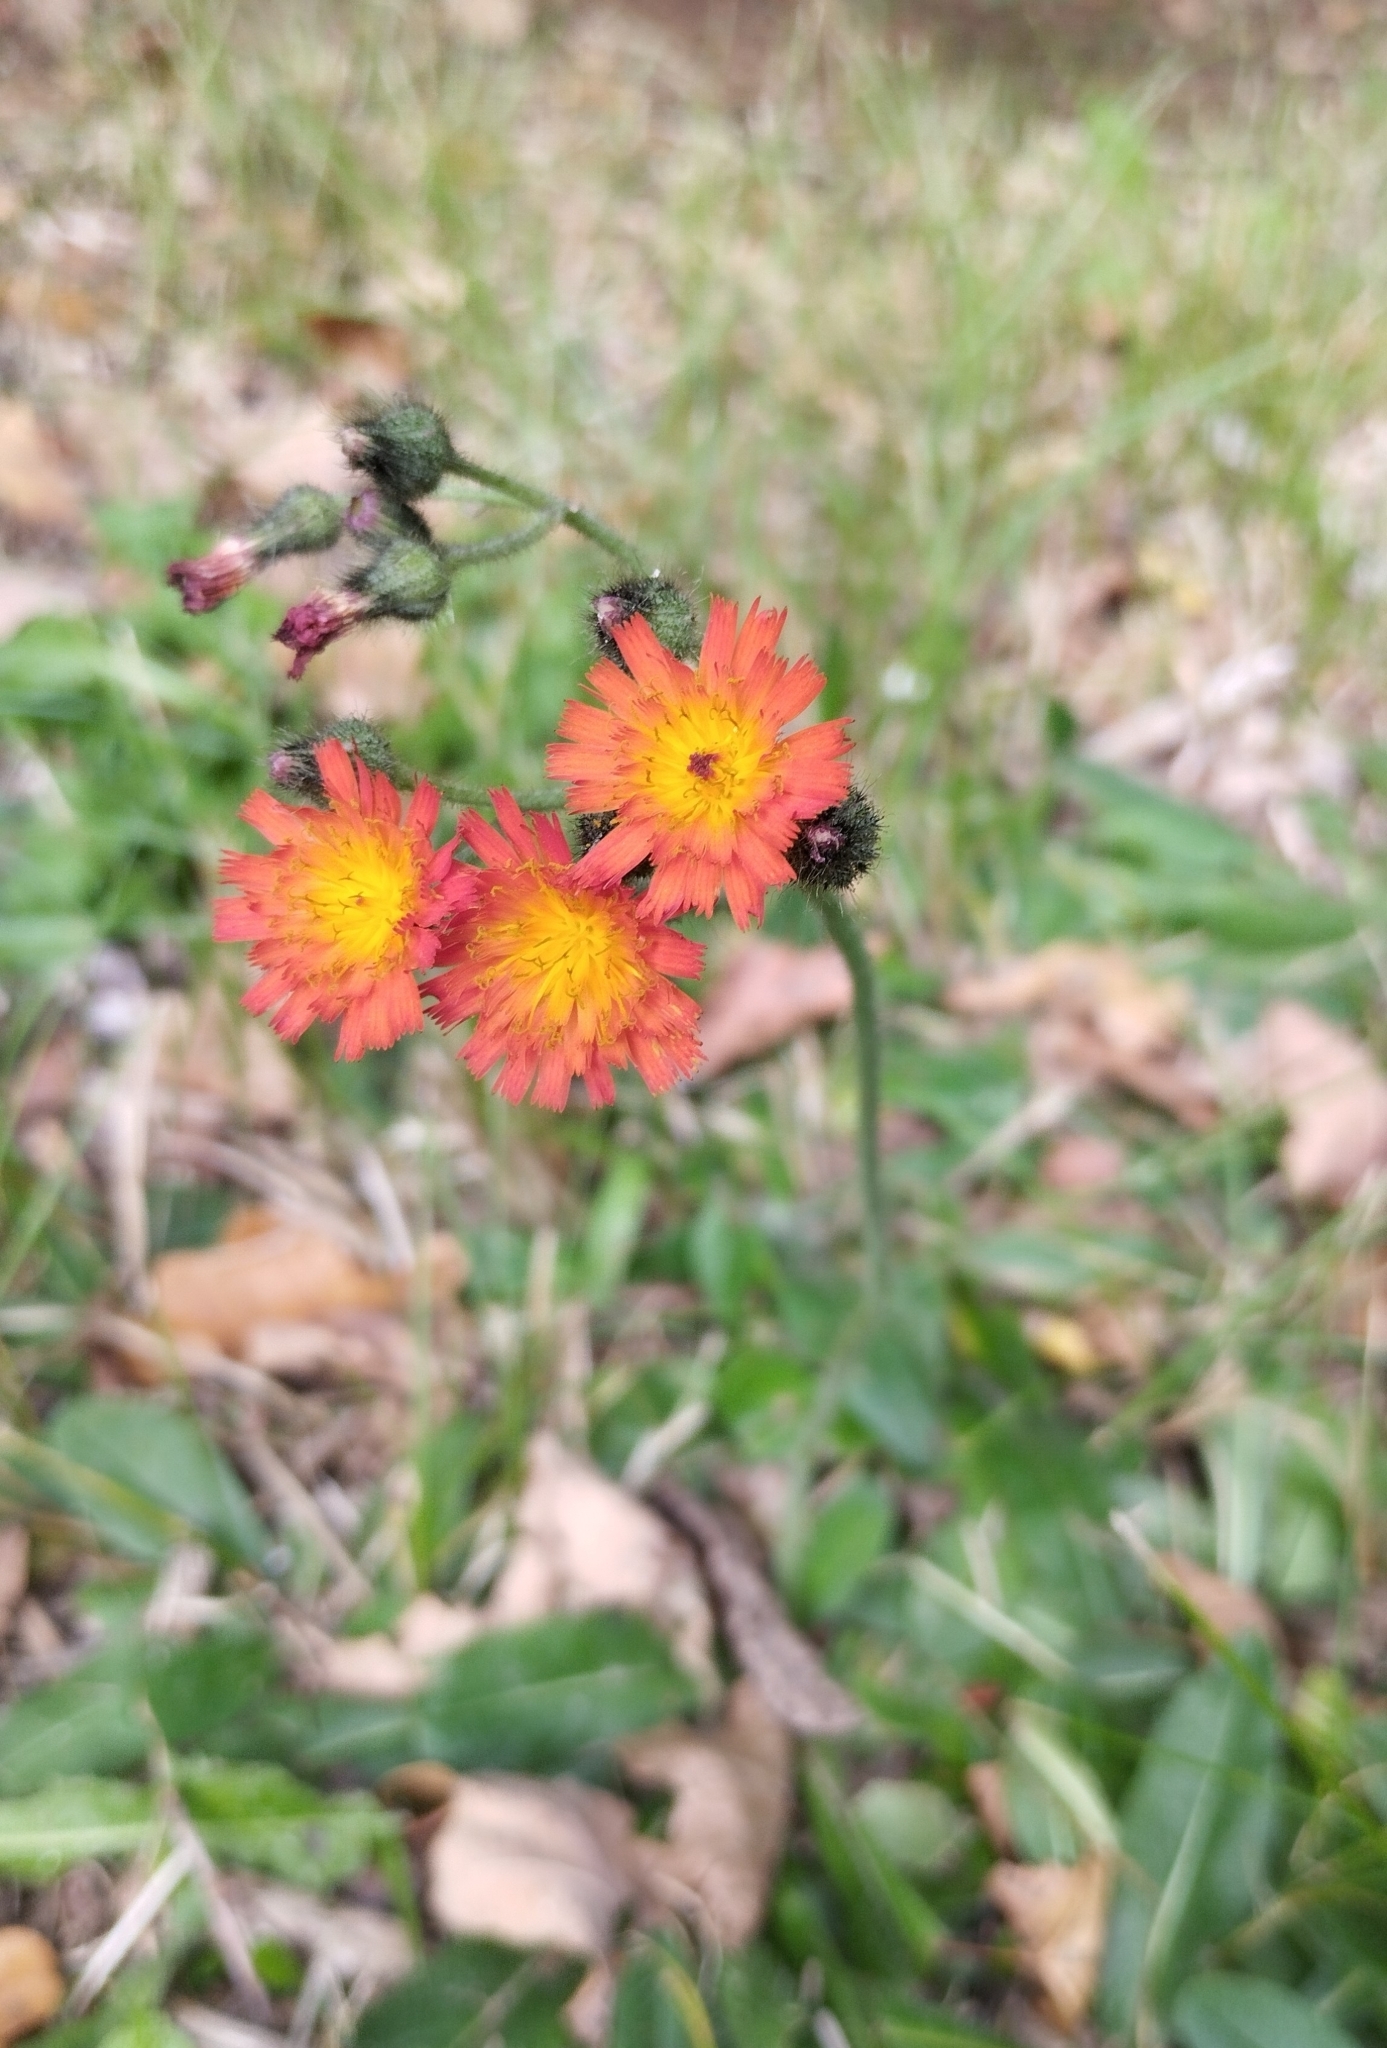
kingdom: Plantae
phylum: Tracheophyta
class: Magnoliopsida
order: Asterales
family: Asteraceae
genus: Pilosella
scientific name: Pilosella aurantiaca
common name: Fox-and-cubs
